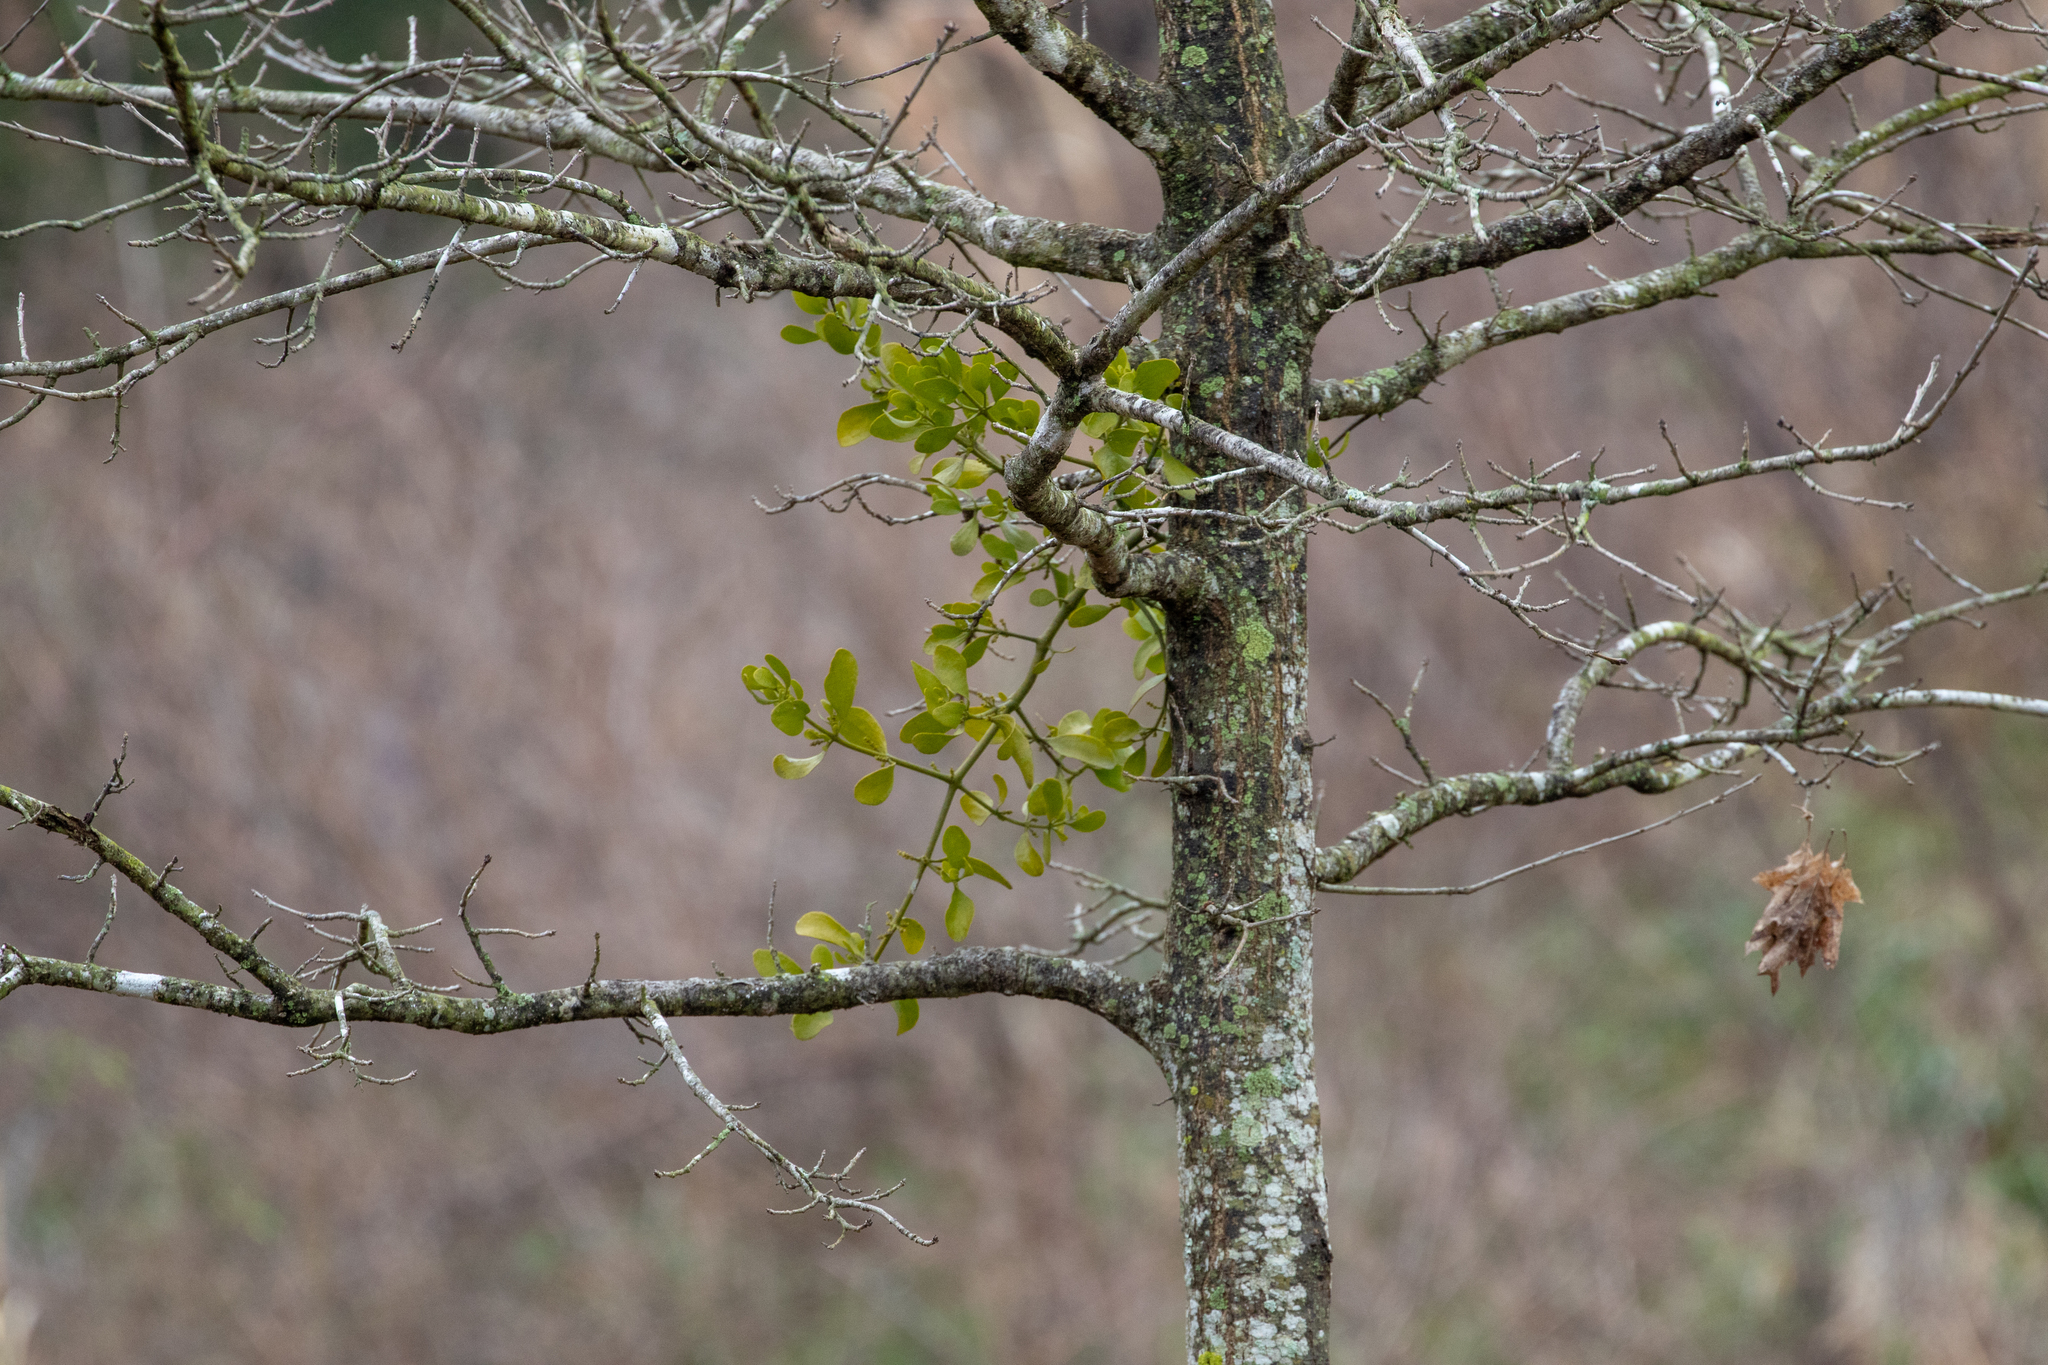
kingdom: Plantae
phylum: Tracheophyta
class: Magnoliopsida
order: Santalales
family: Viscaceae
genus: Phoradendron
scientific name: Phoradendron leucarpum
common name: Pacific mistletoe
